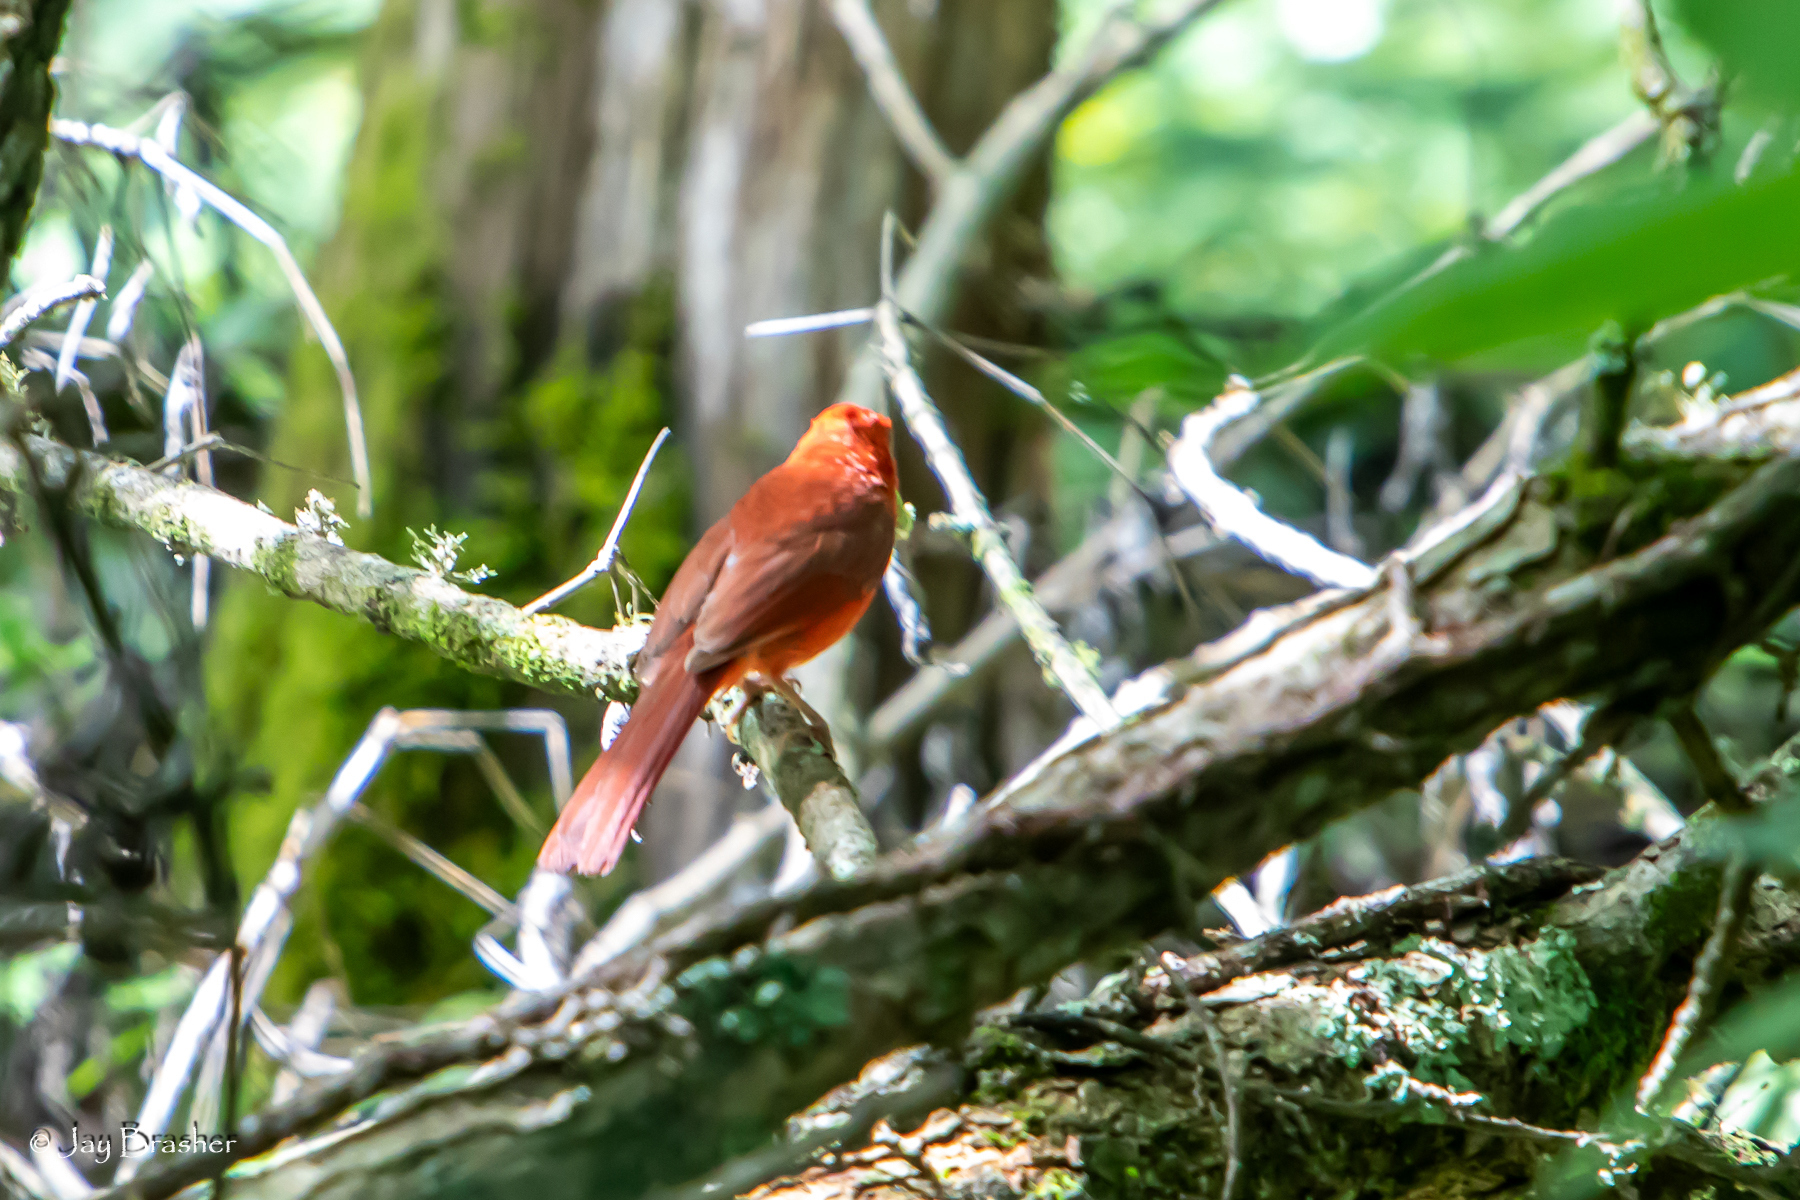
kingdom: Animalia
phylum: Chordata
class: Aves
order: Passeriformes
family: Cardinalidae
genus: Cardinalis
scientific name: Cardinalis cardinalis
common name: Northern cardinal
